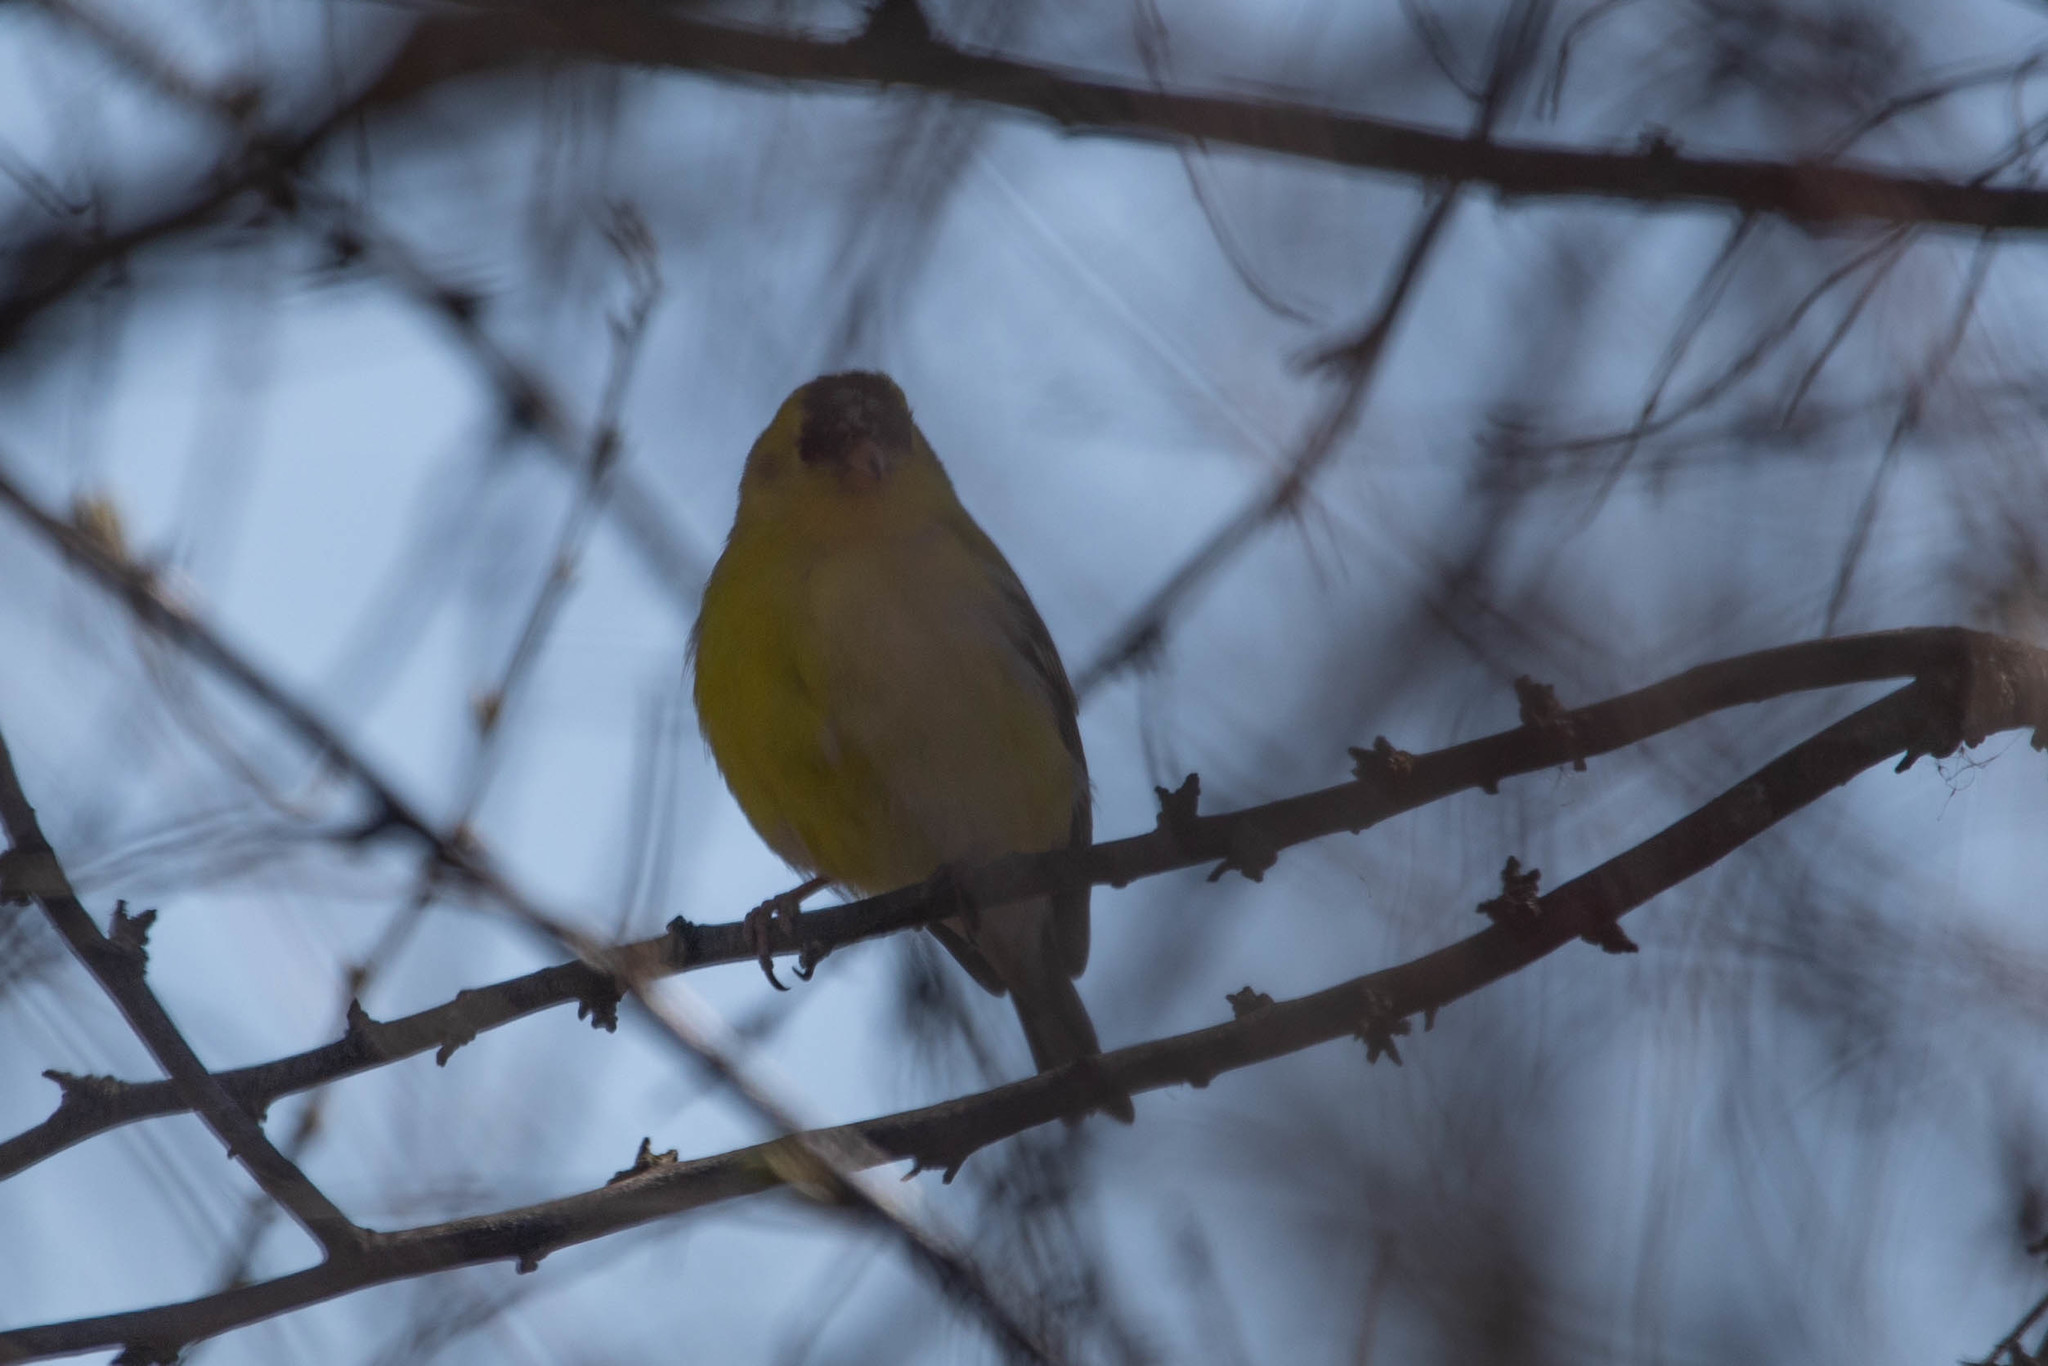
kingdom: Animalia
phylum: Chordata
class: Aves
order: Passeriformes
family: Fringillidae
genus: Spinus
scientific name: Spinus tristis
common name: American goldfinch
